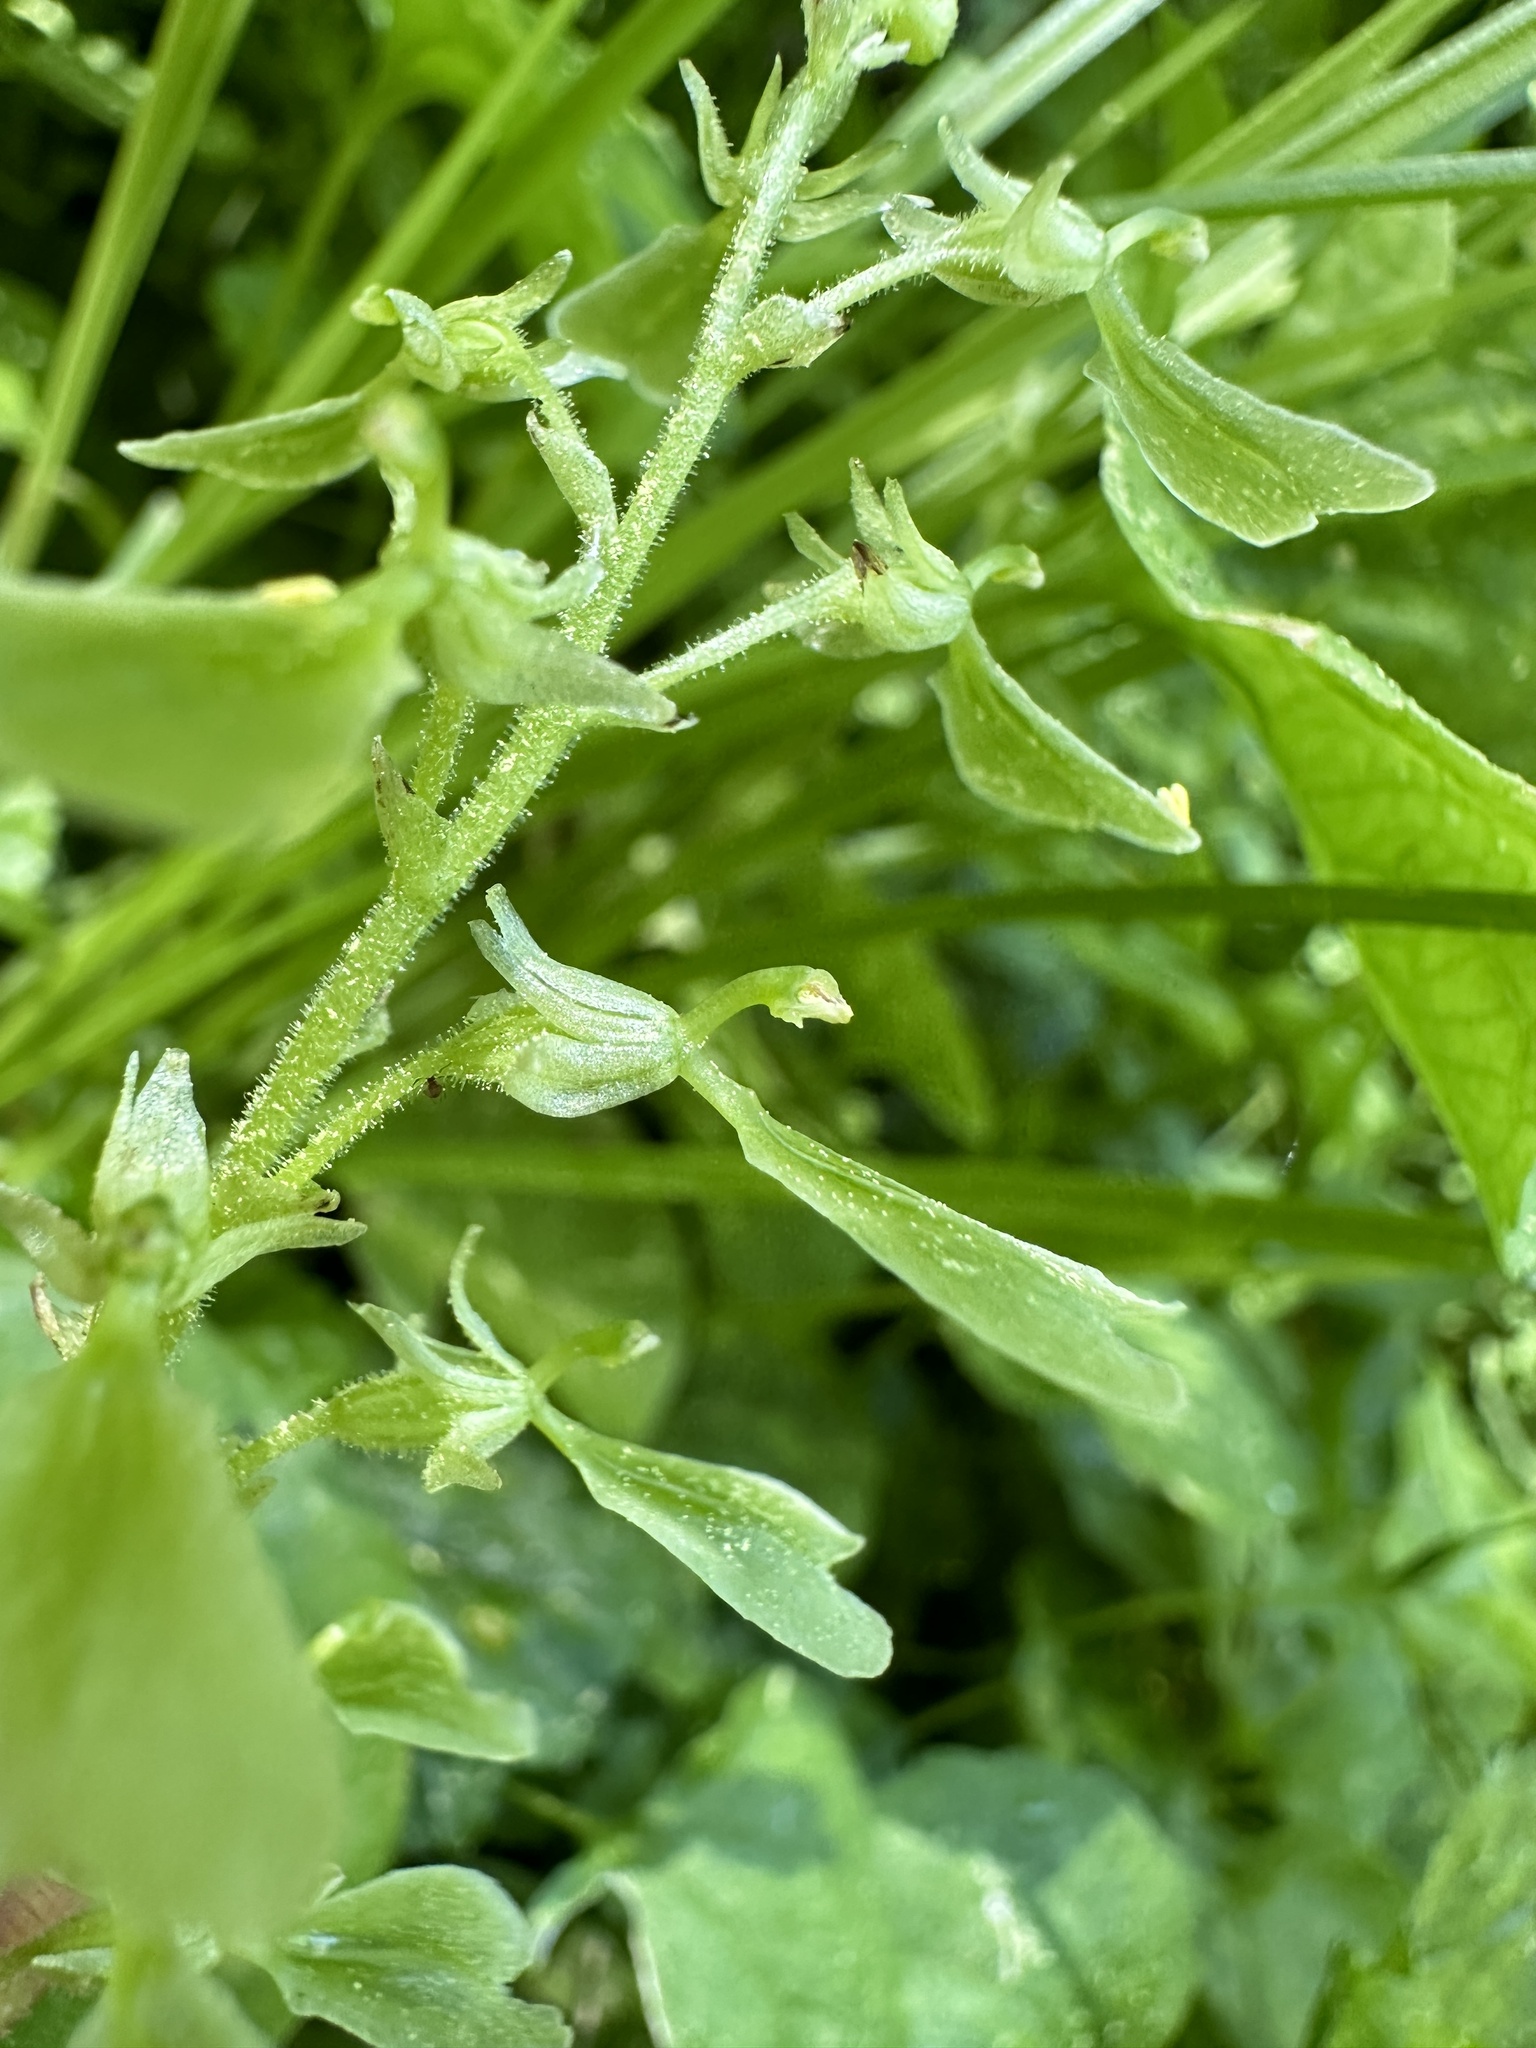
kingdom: Plantae
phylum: Tracheophyta
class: Liliopsida
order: Asparagales
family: Orchidaceae
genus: Neottia
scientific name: Neottia convallarioides
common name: Broadleaf twayblade
